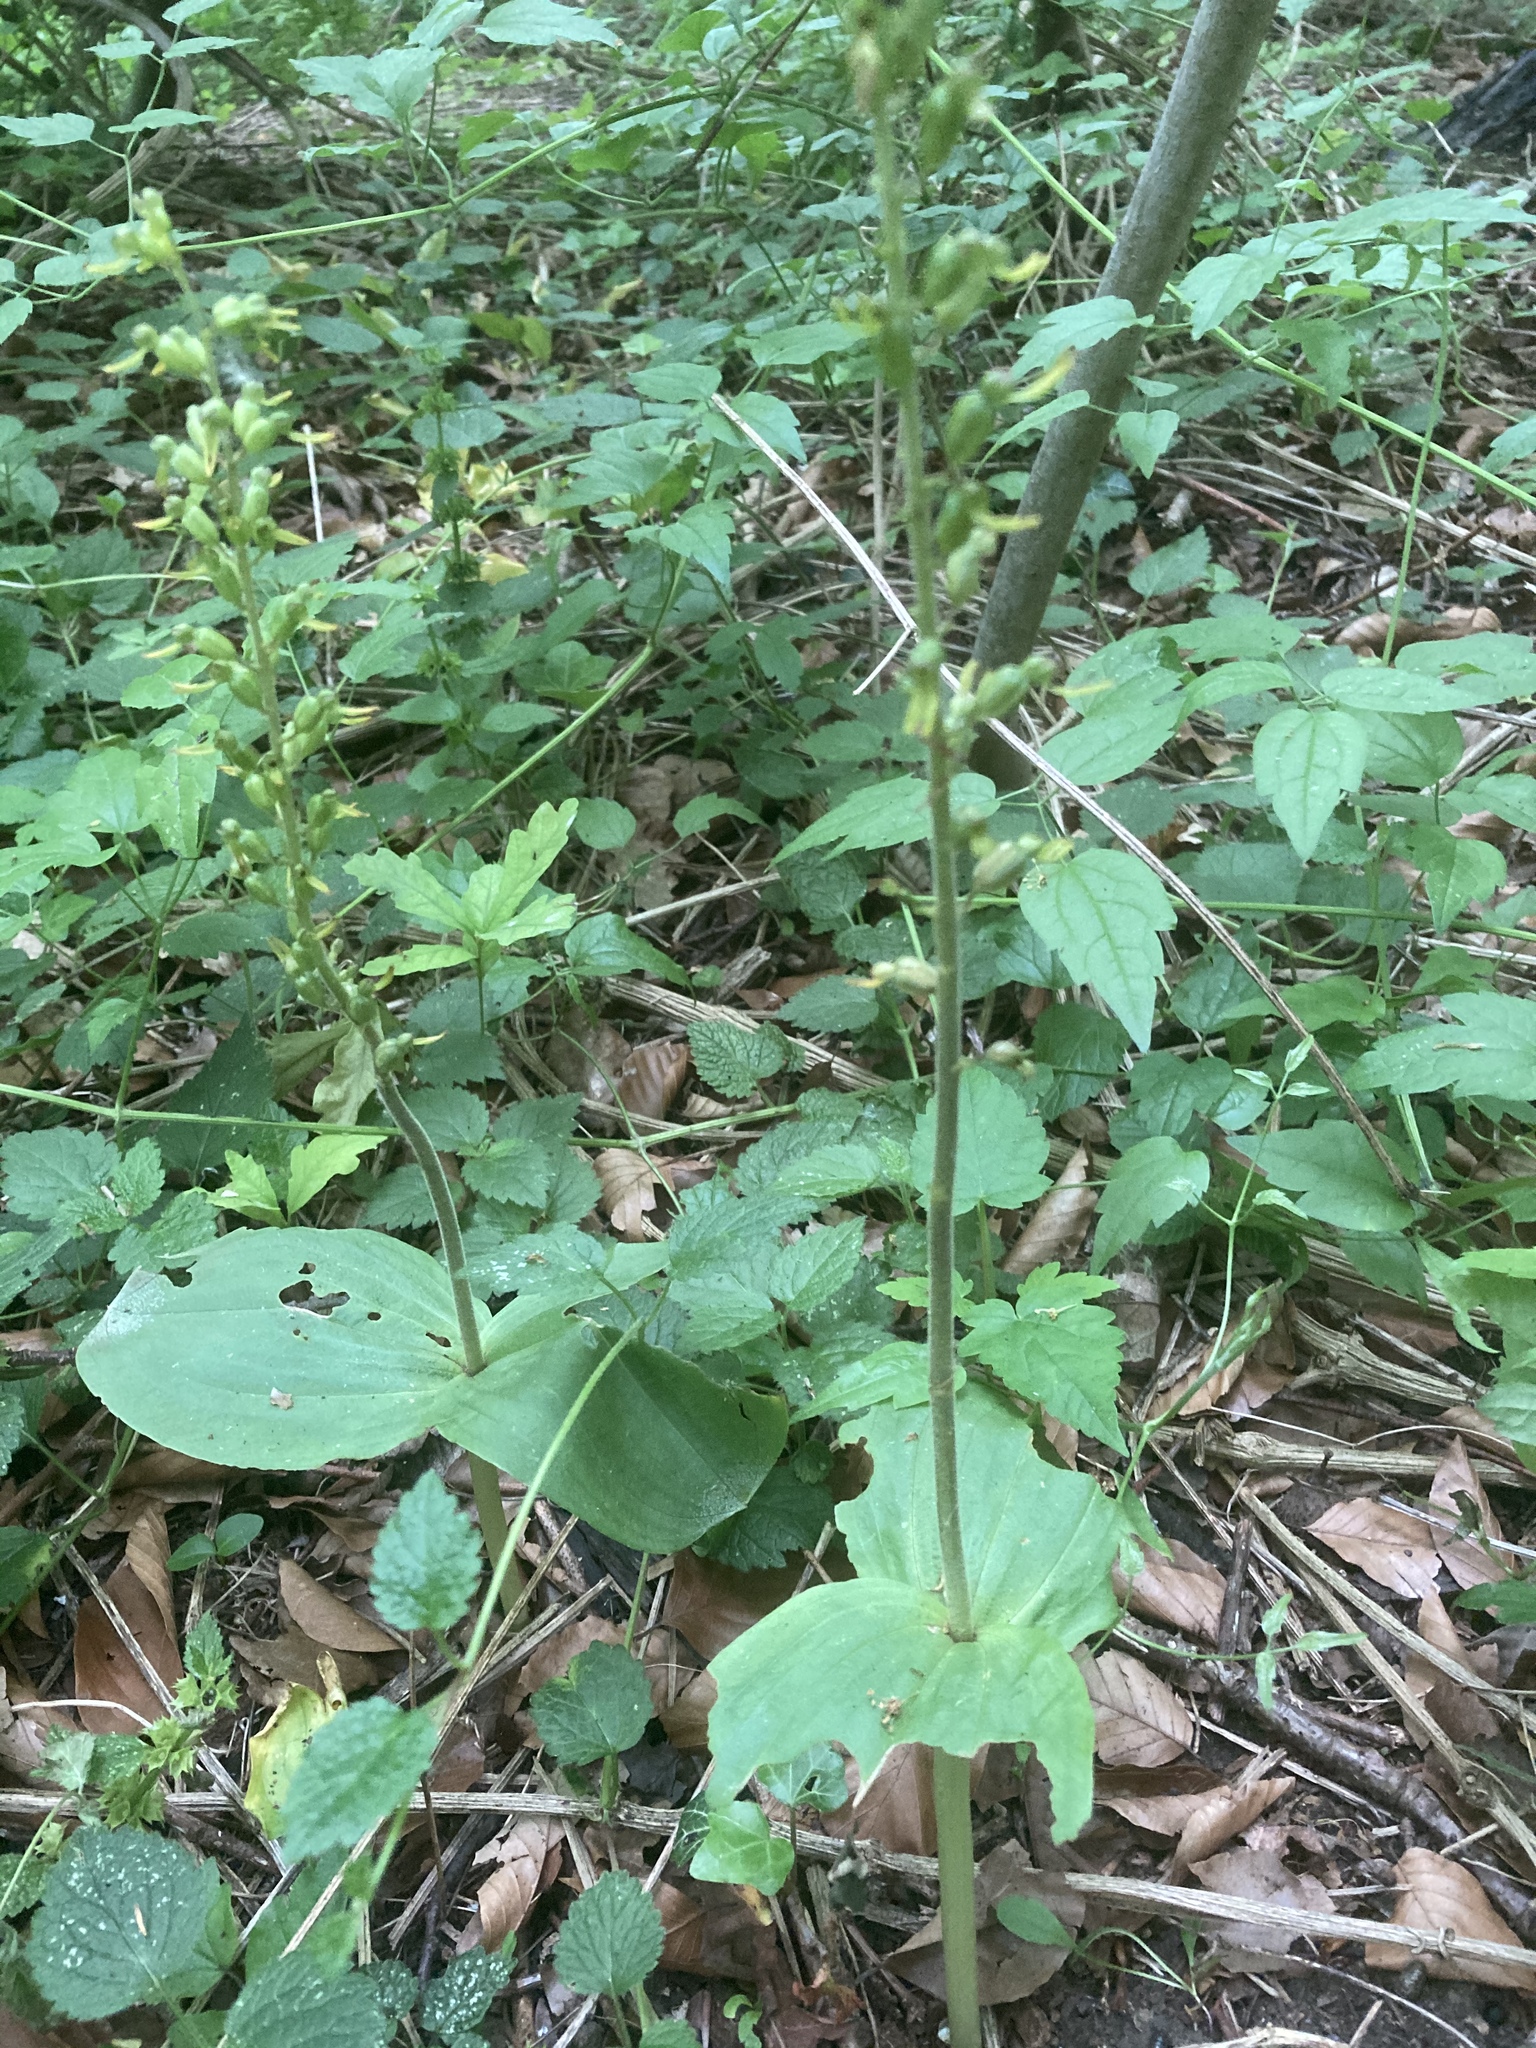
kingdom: Plantae
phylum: Tracheophyta
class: Liliopsida
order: Asparagales
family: Orchidaceae
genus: Neottia
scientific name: Neottia ovata
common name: Common twayblade
